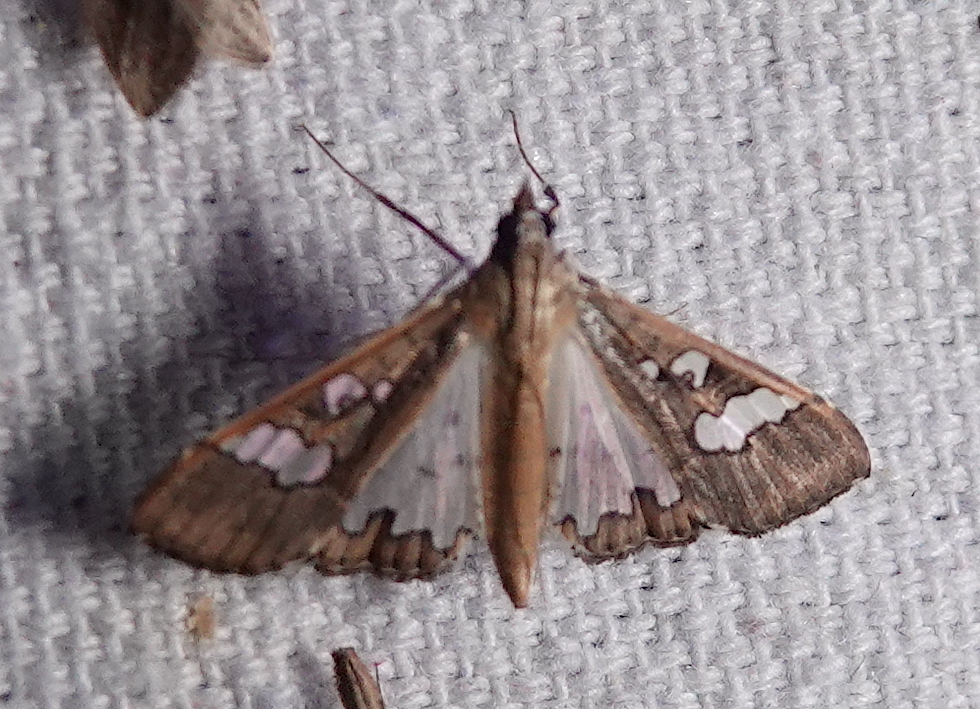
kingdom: Animalia
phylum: Arthropoda
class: Insecta
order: Lepidoptera
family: Crambidae
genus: Maruca
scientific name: Maruca vitrata
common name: Maruca pod borer
